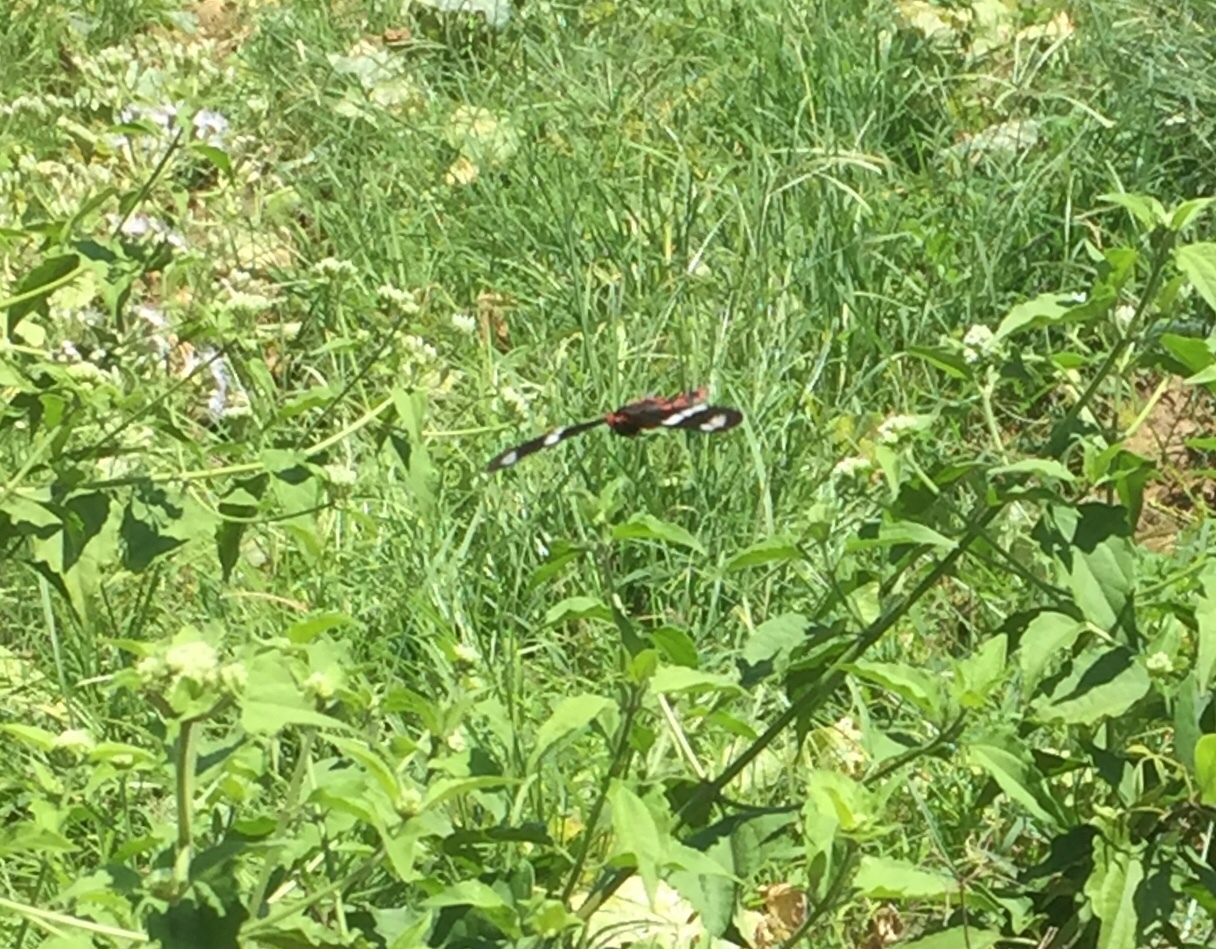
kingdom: Animalia
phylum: Arthropoda
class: Insecta
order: Lepidoptera
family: Papilionidae
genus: Pachliopta
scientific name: Pachliopta hector
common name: Crimson rose
